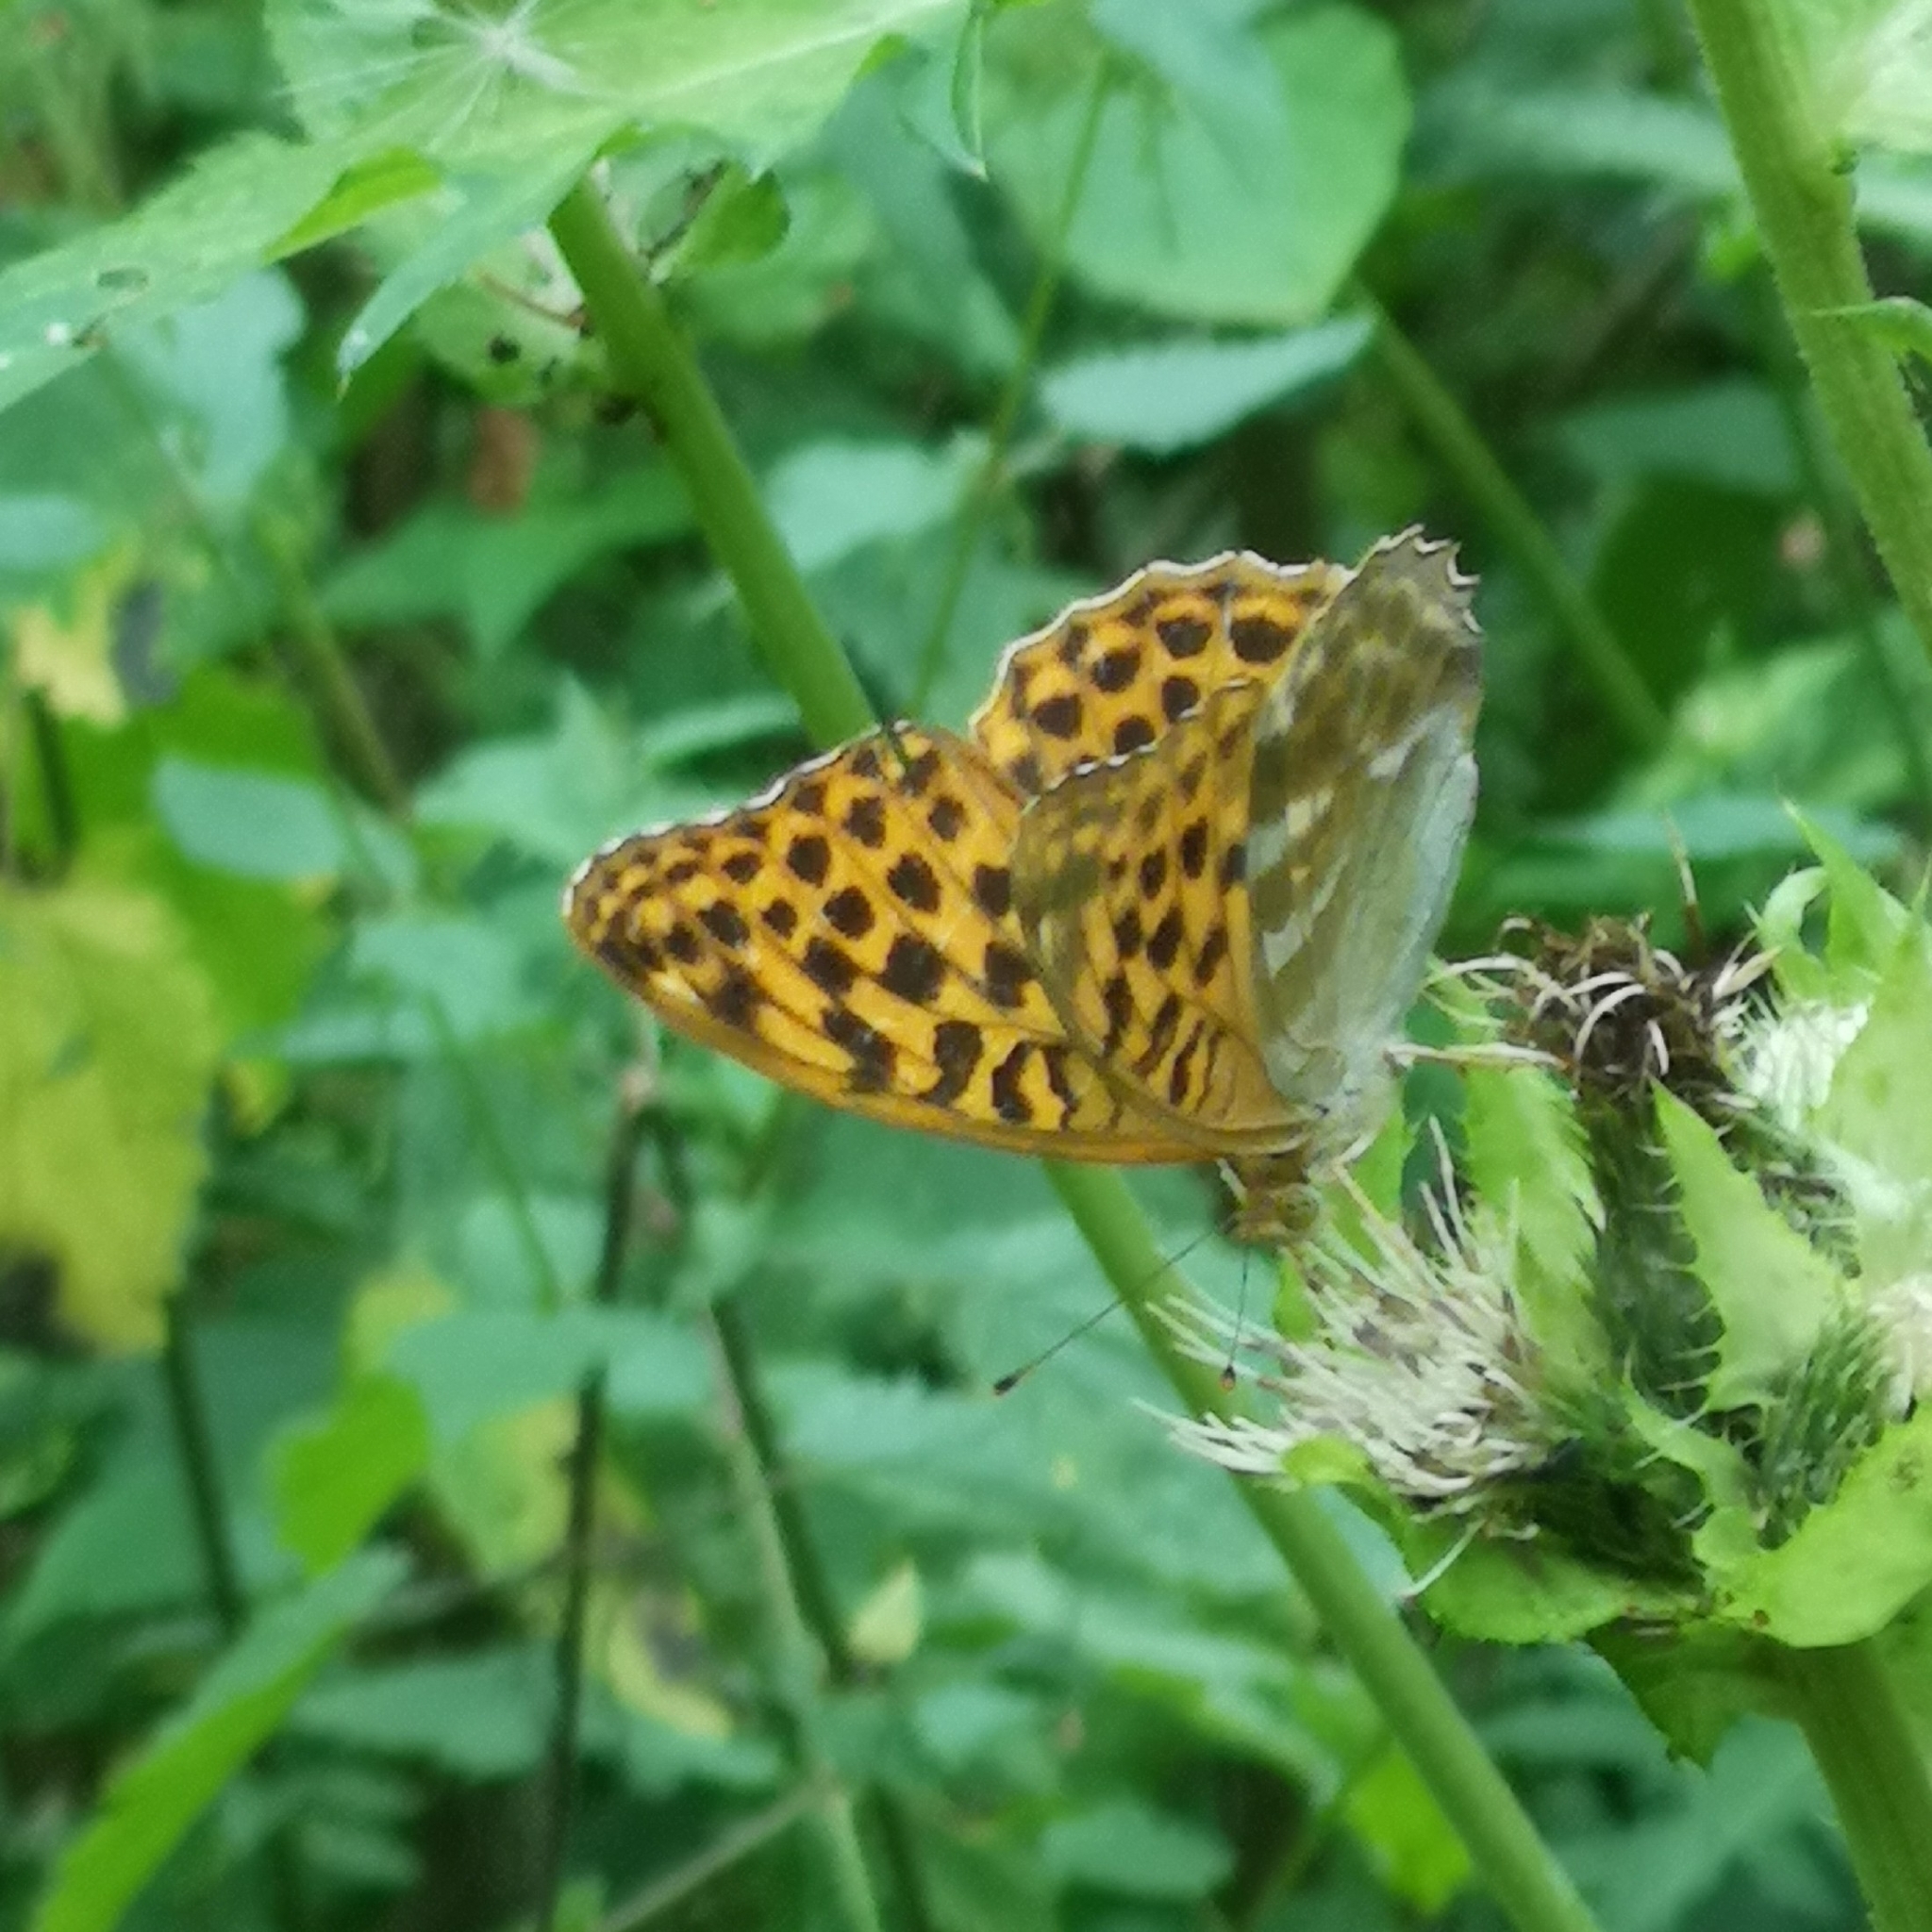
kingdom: Animalia
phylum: Arthropoda
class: Insecta
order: Lepidoptera
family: Nymphalidae
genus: Argynnis
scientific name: Argynnis paphia
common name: Silver-washed fritillary
